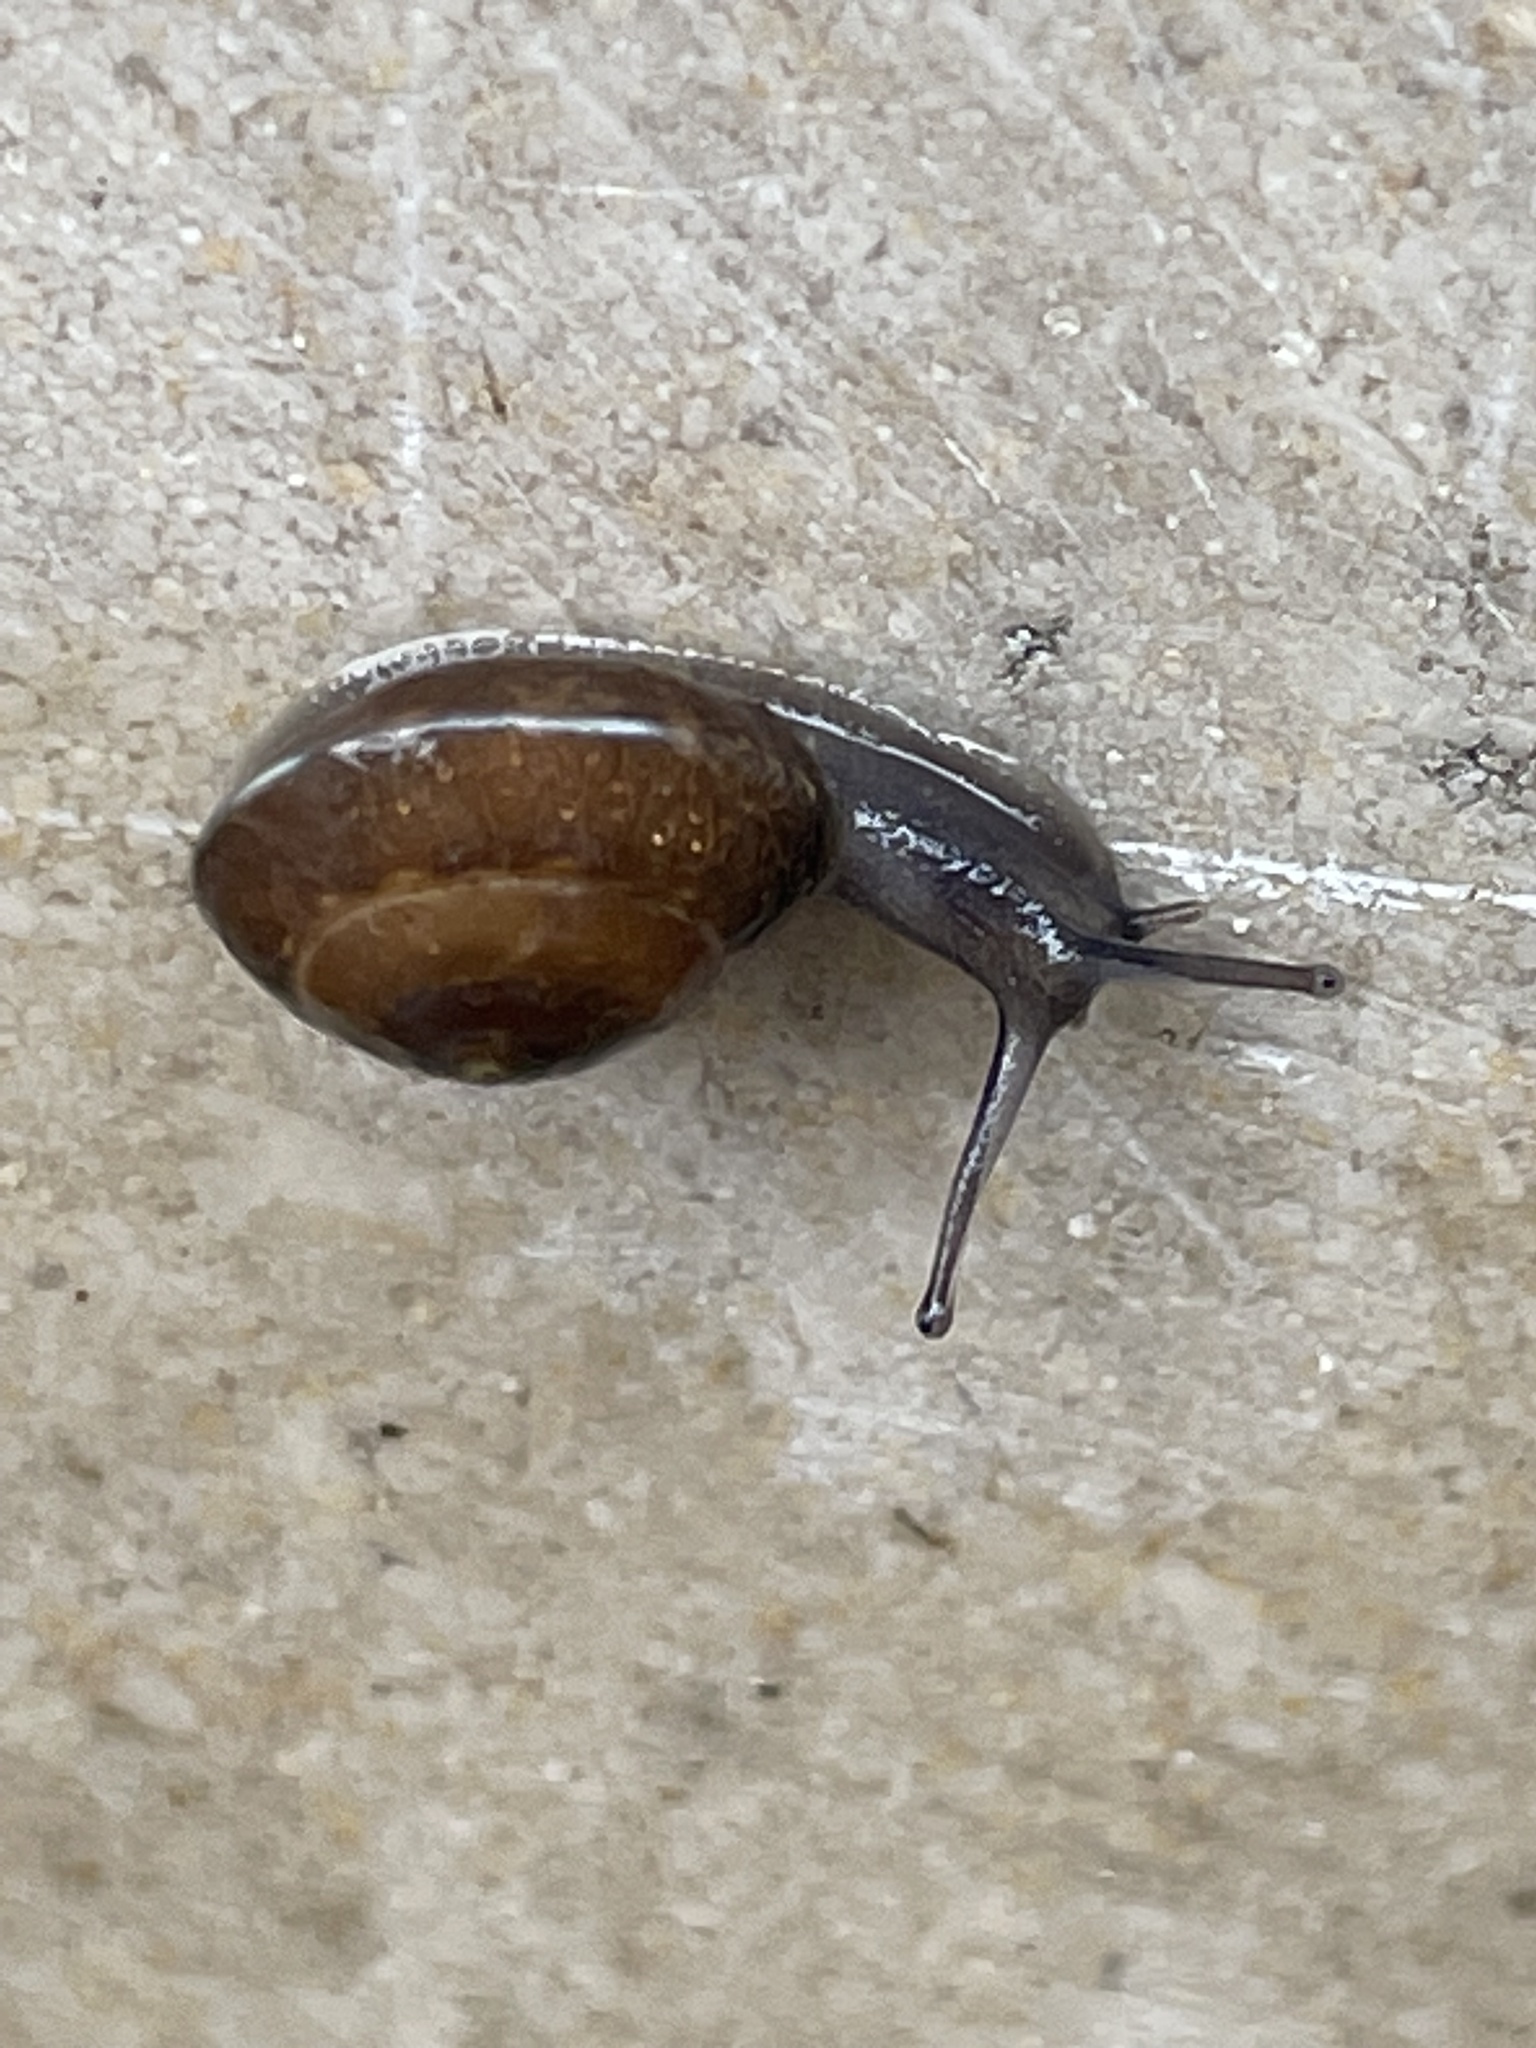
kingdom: Animalia
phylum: Mollusca
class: Gastropoda
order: Stylommatophora
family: Hygromiidae
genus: Hygromia
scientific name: Hygromia cinctella
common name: Girdled snail
